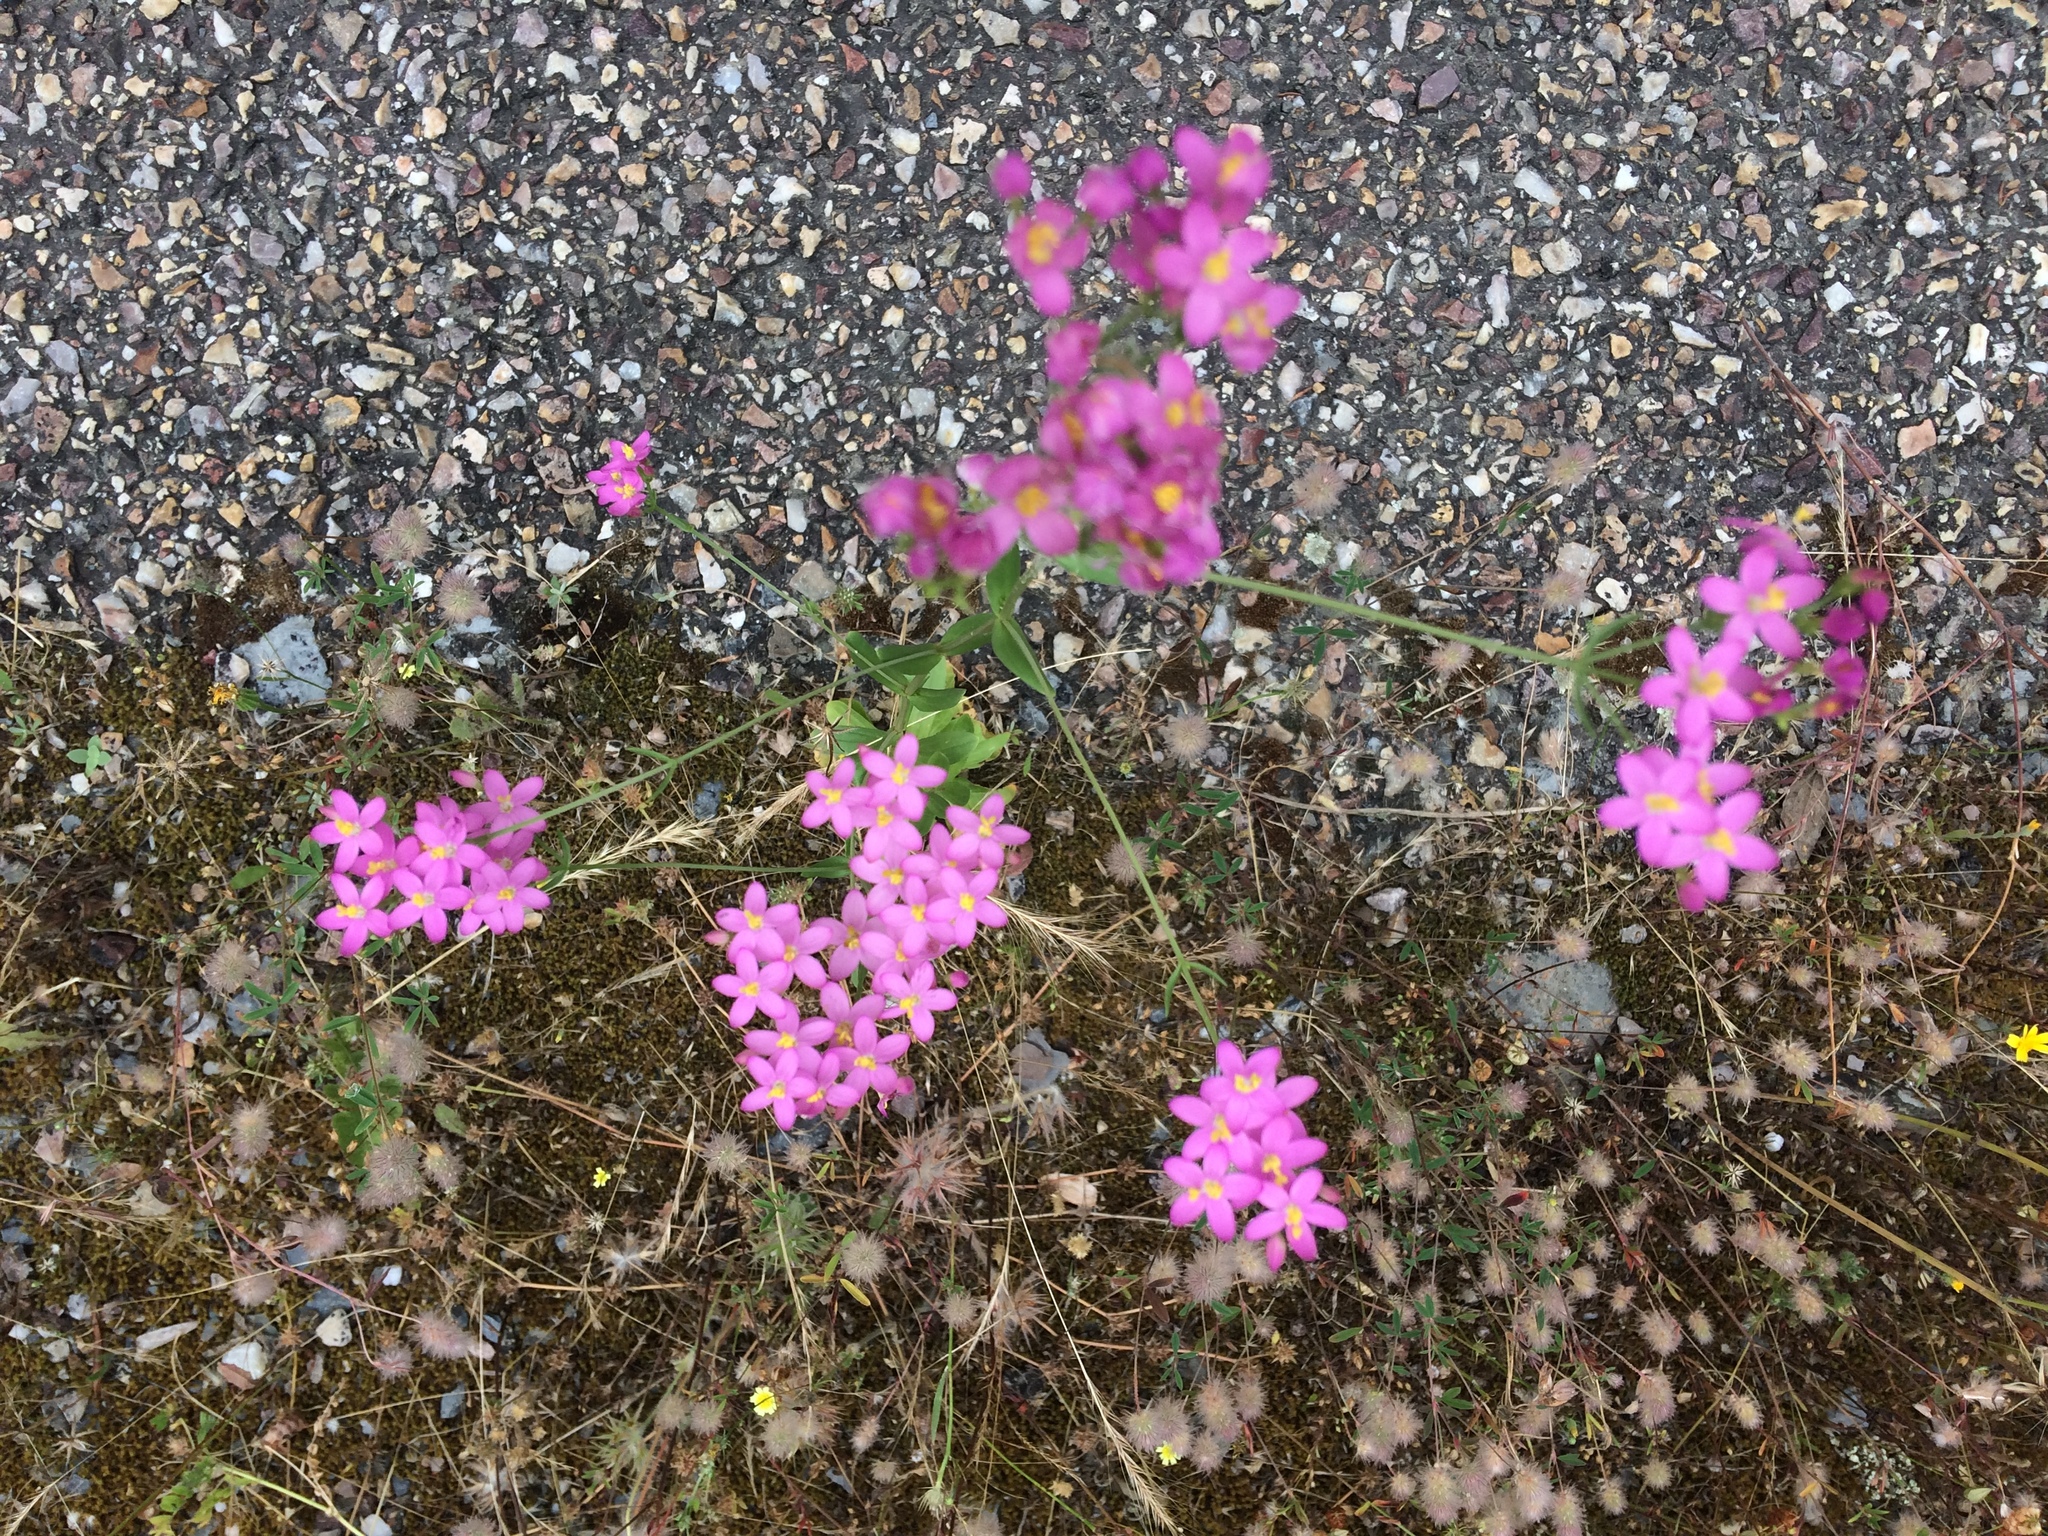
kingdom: Plantae
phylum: Tracheophyta
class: Magnoliopsida
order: Gentianales
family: Gentianaceae
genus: Centaurium
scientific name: Centaurium erythraea
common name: Common centaury
